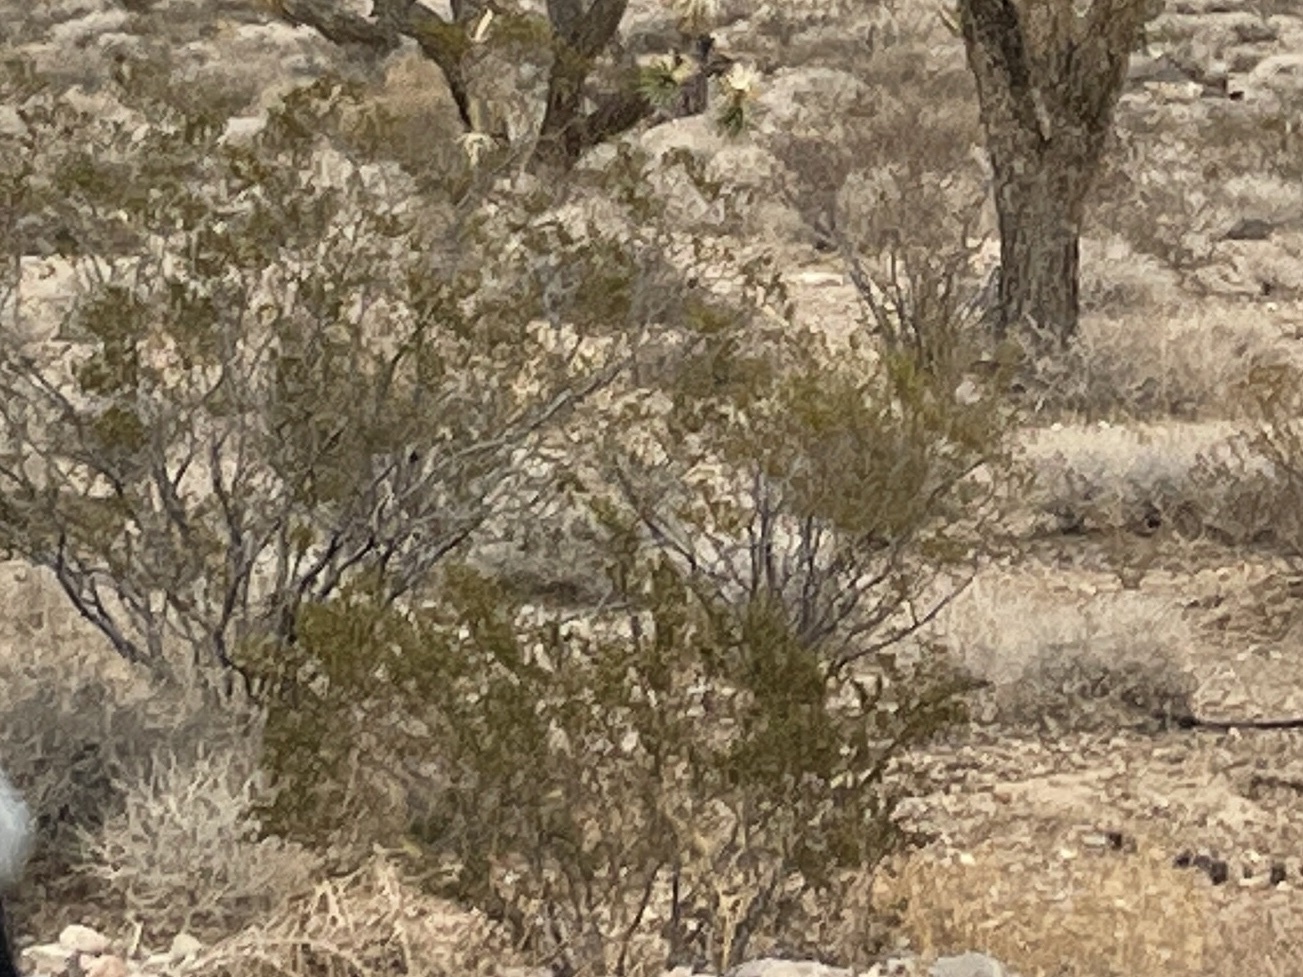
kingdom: Plantae
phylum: Tracheophyta
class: Magnoliopsida
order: Zygophyllales
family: Zygophyllaceae
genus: Larrea
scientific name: Larrea tridentata
